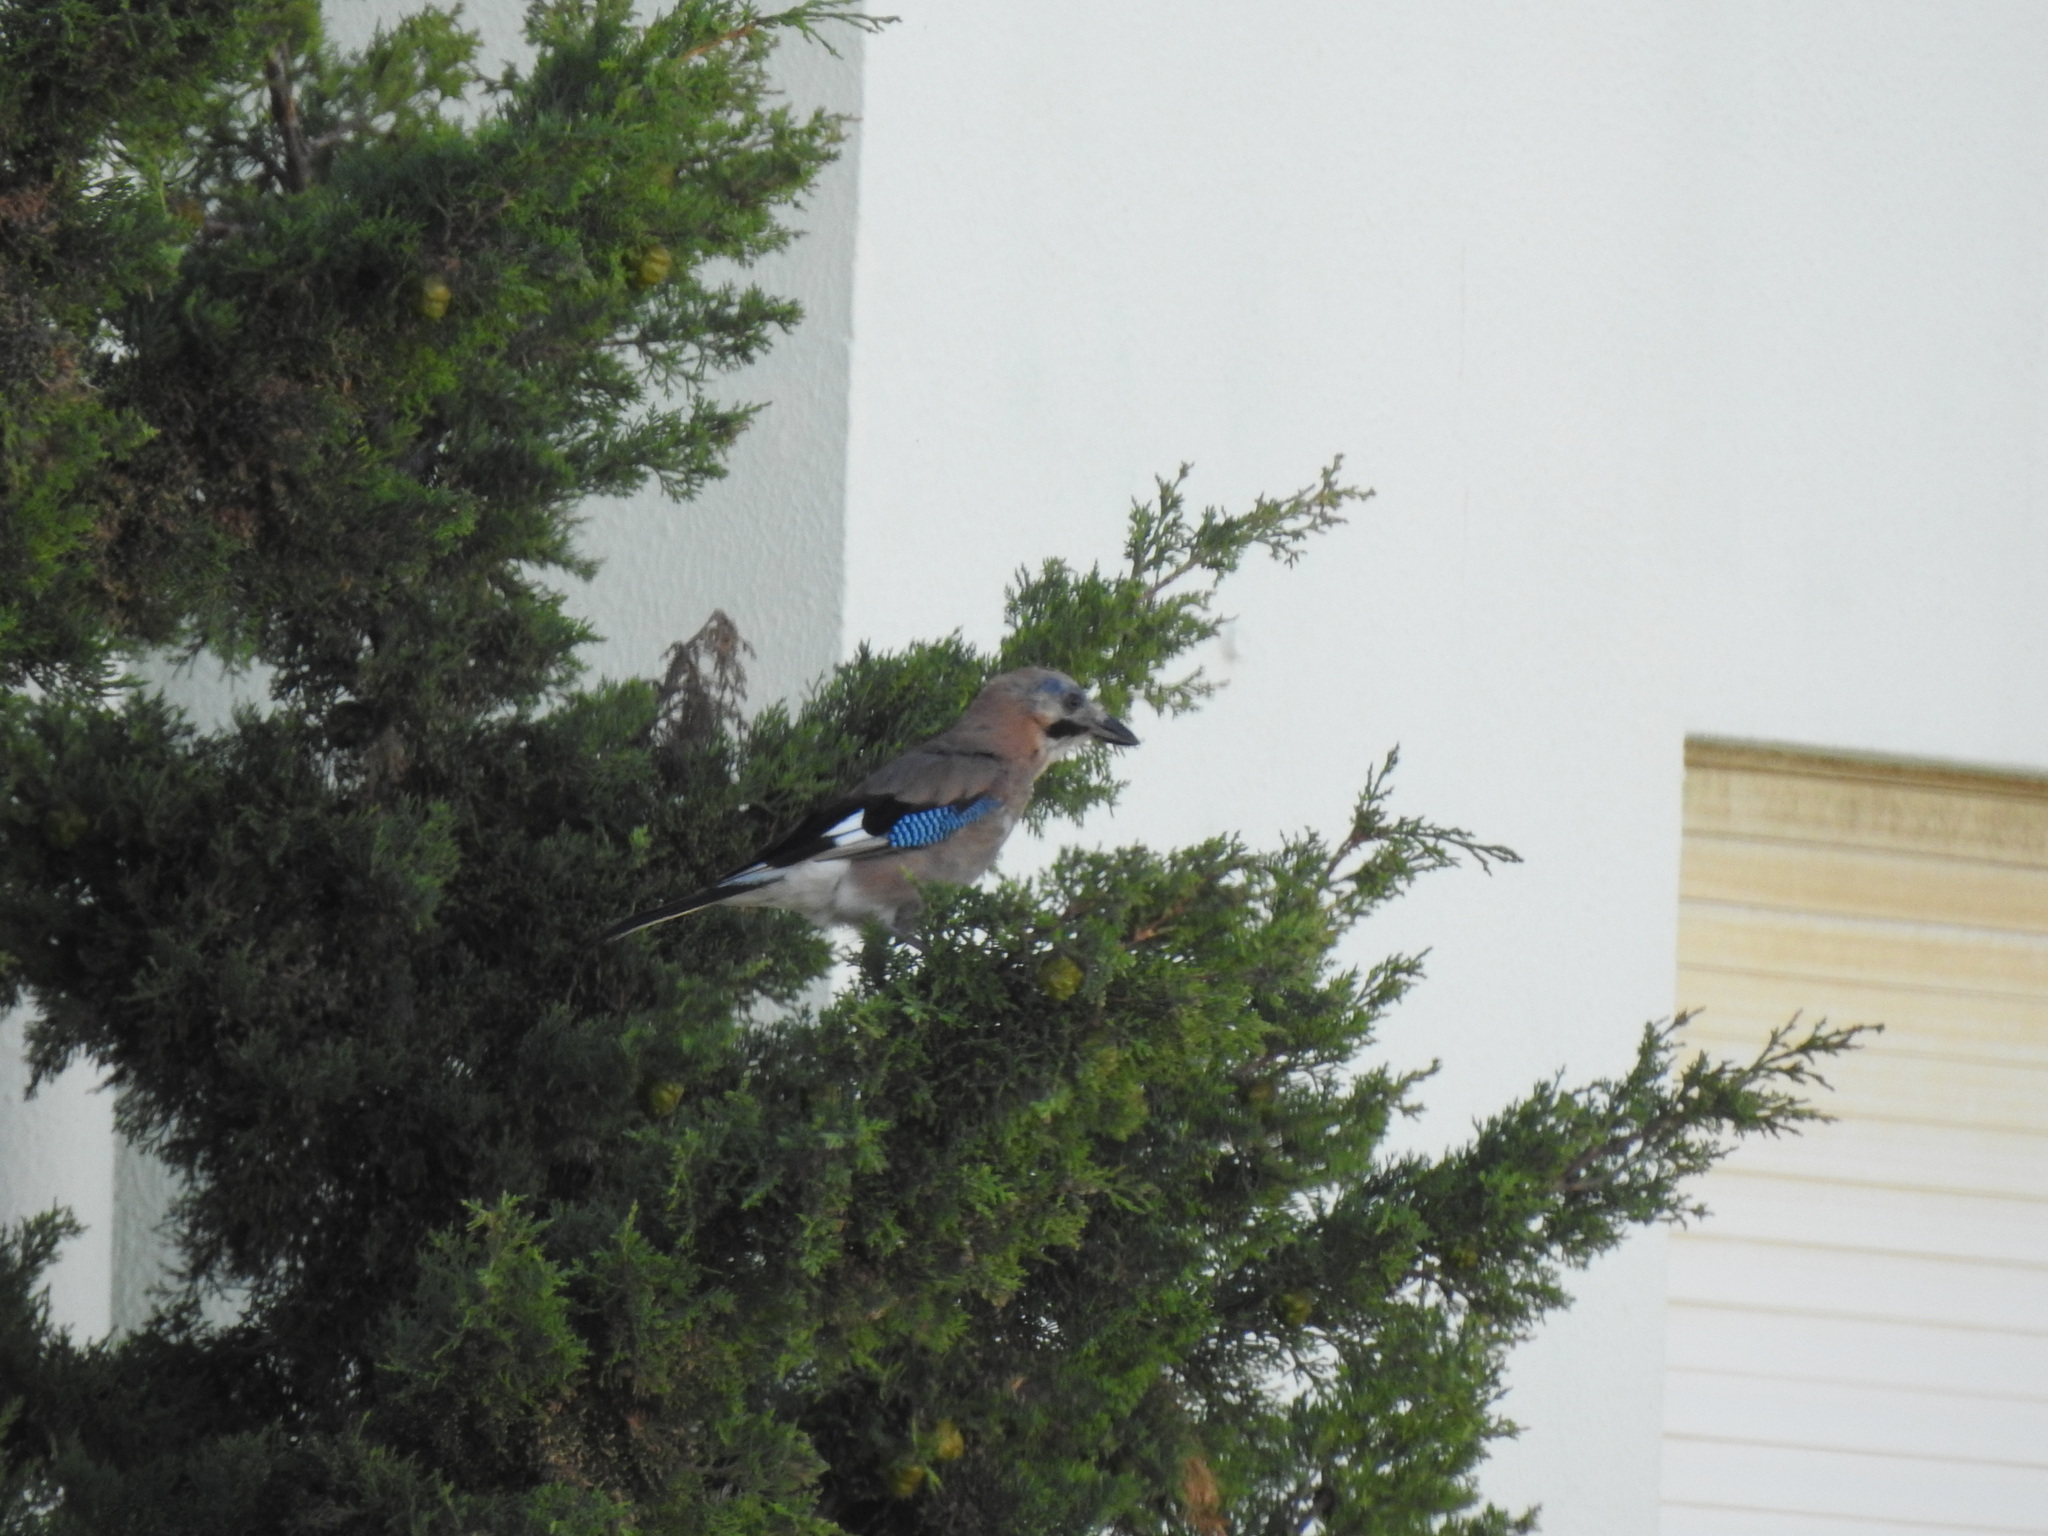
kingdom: Animalia
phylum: Chordata
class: Aves
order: Passeriformes
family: Corvidae
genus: Garrulus
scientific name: Garrulus glandarius
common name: Eurasian jay
